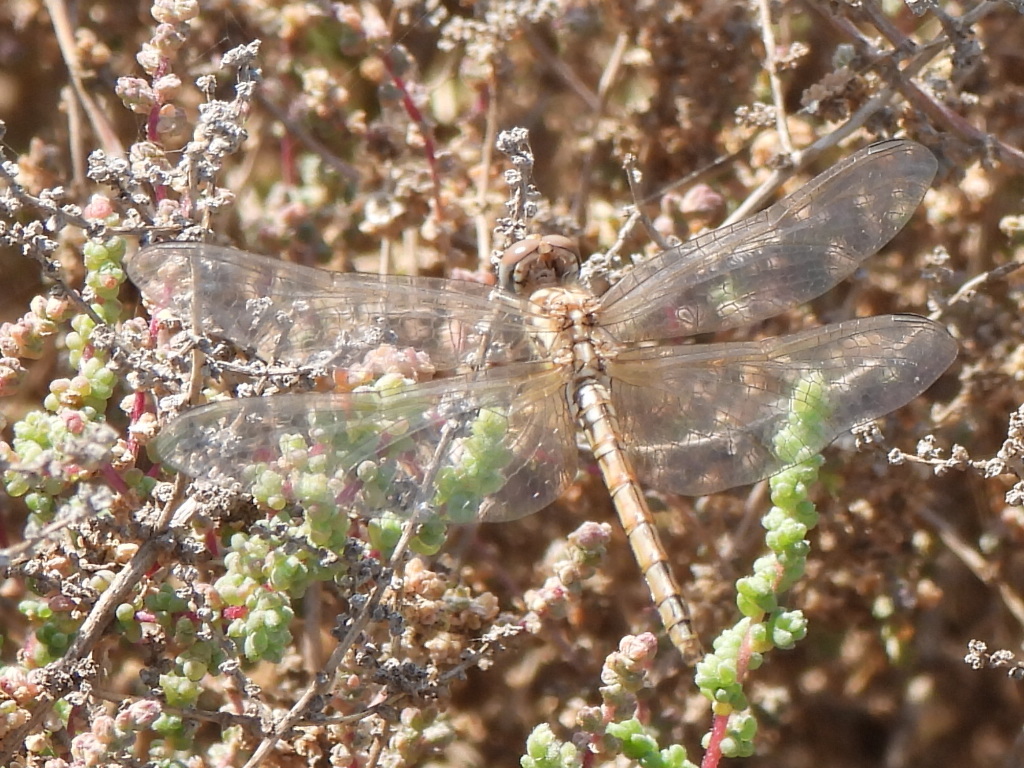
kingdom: Animalia
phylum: Arthropoda
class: Insecta
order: Odonata
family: Libellulidae
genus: Trithemis
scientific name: Trithemis annulata
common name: Violet dropwing
